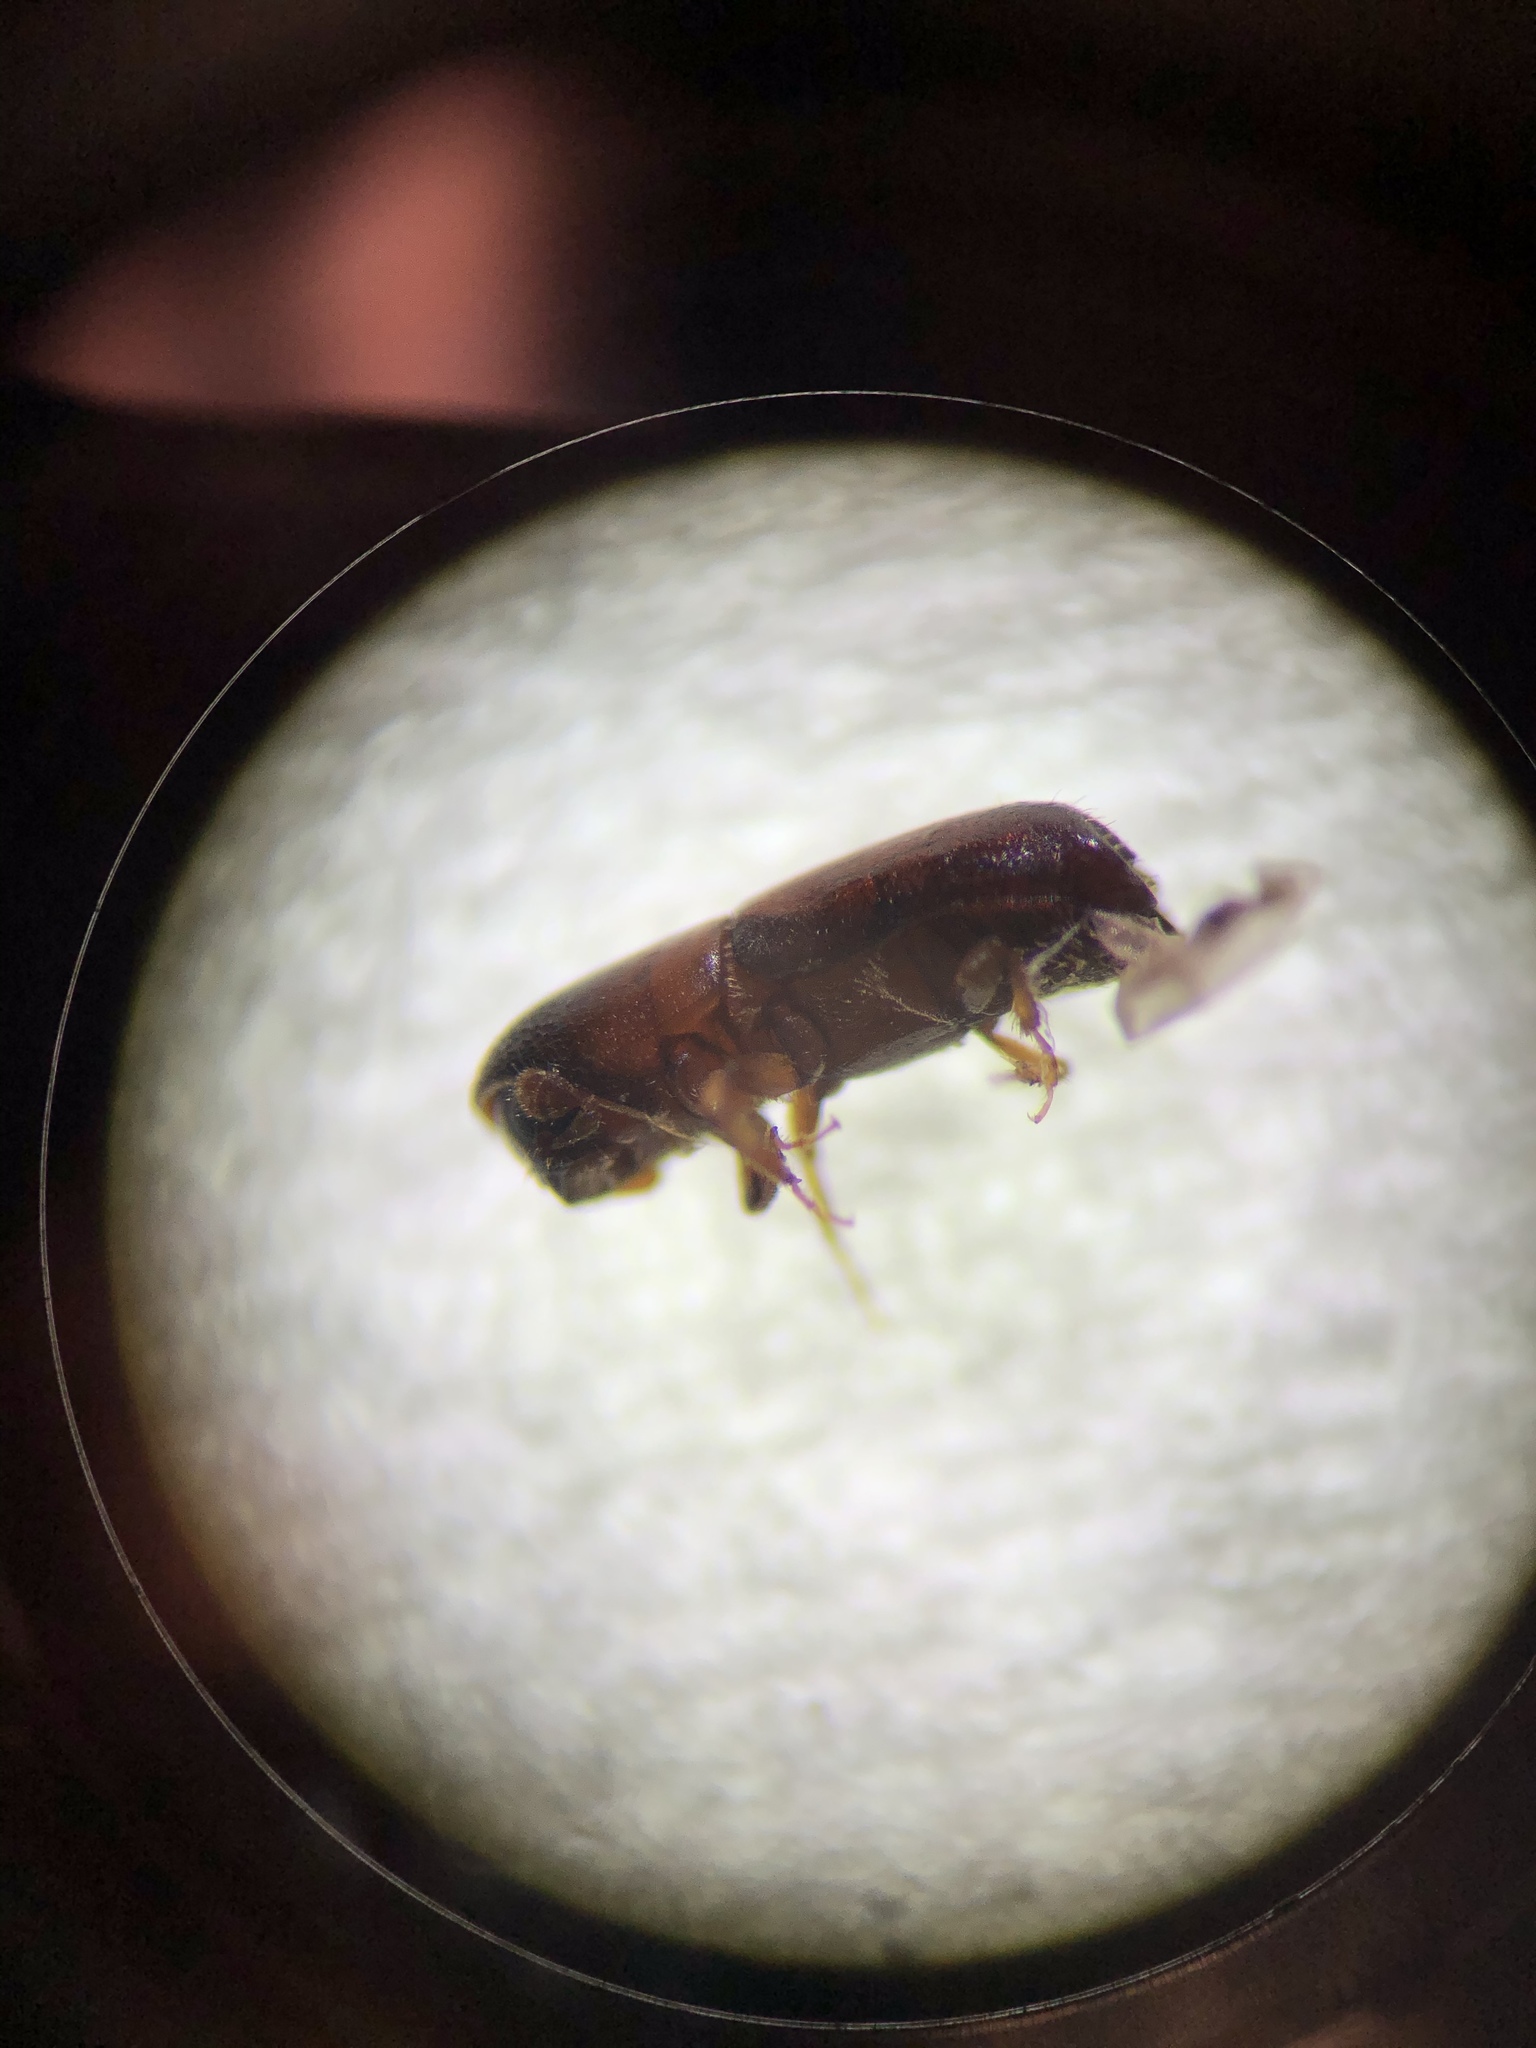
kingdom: Animalia
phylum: Arthropoda
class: Insecta
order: Coleoptera
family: Curculionidae
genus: Monarthrum
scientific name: Monarthrum mali
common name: Bark beetle
